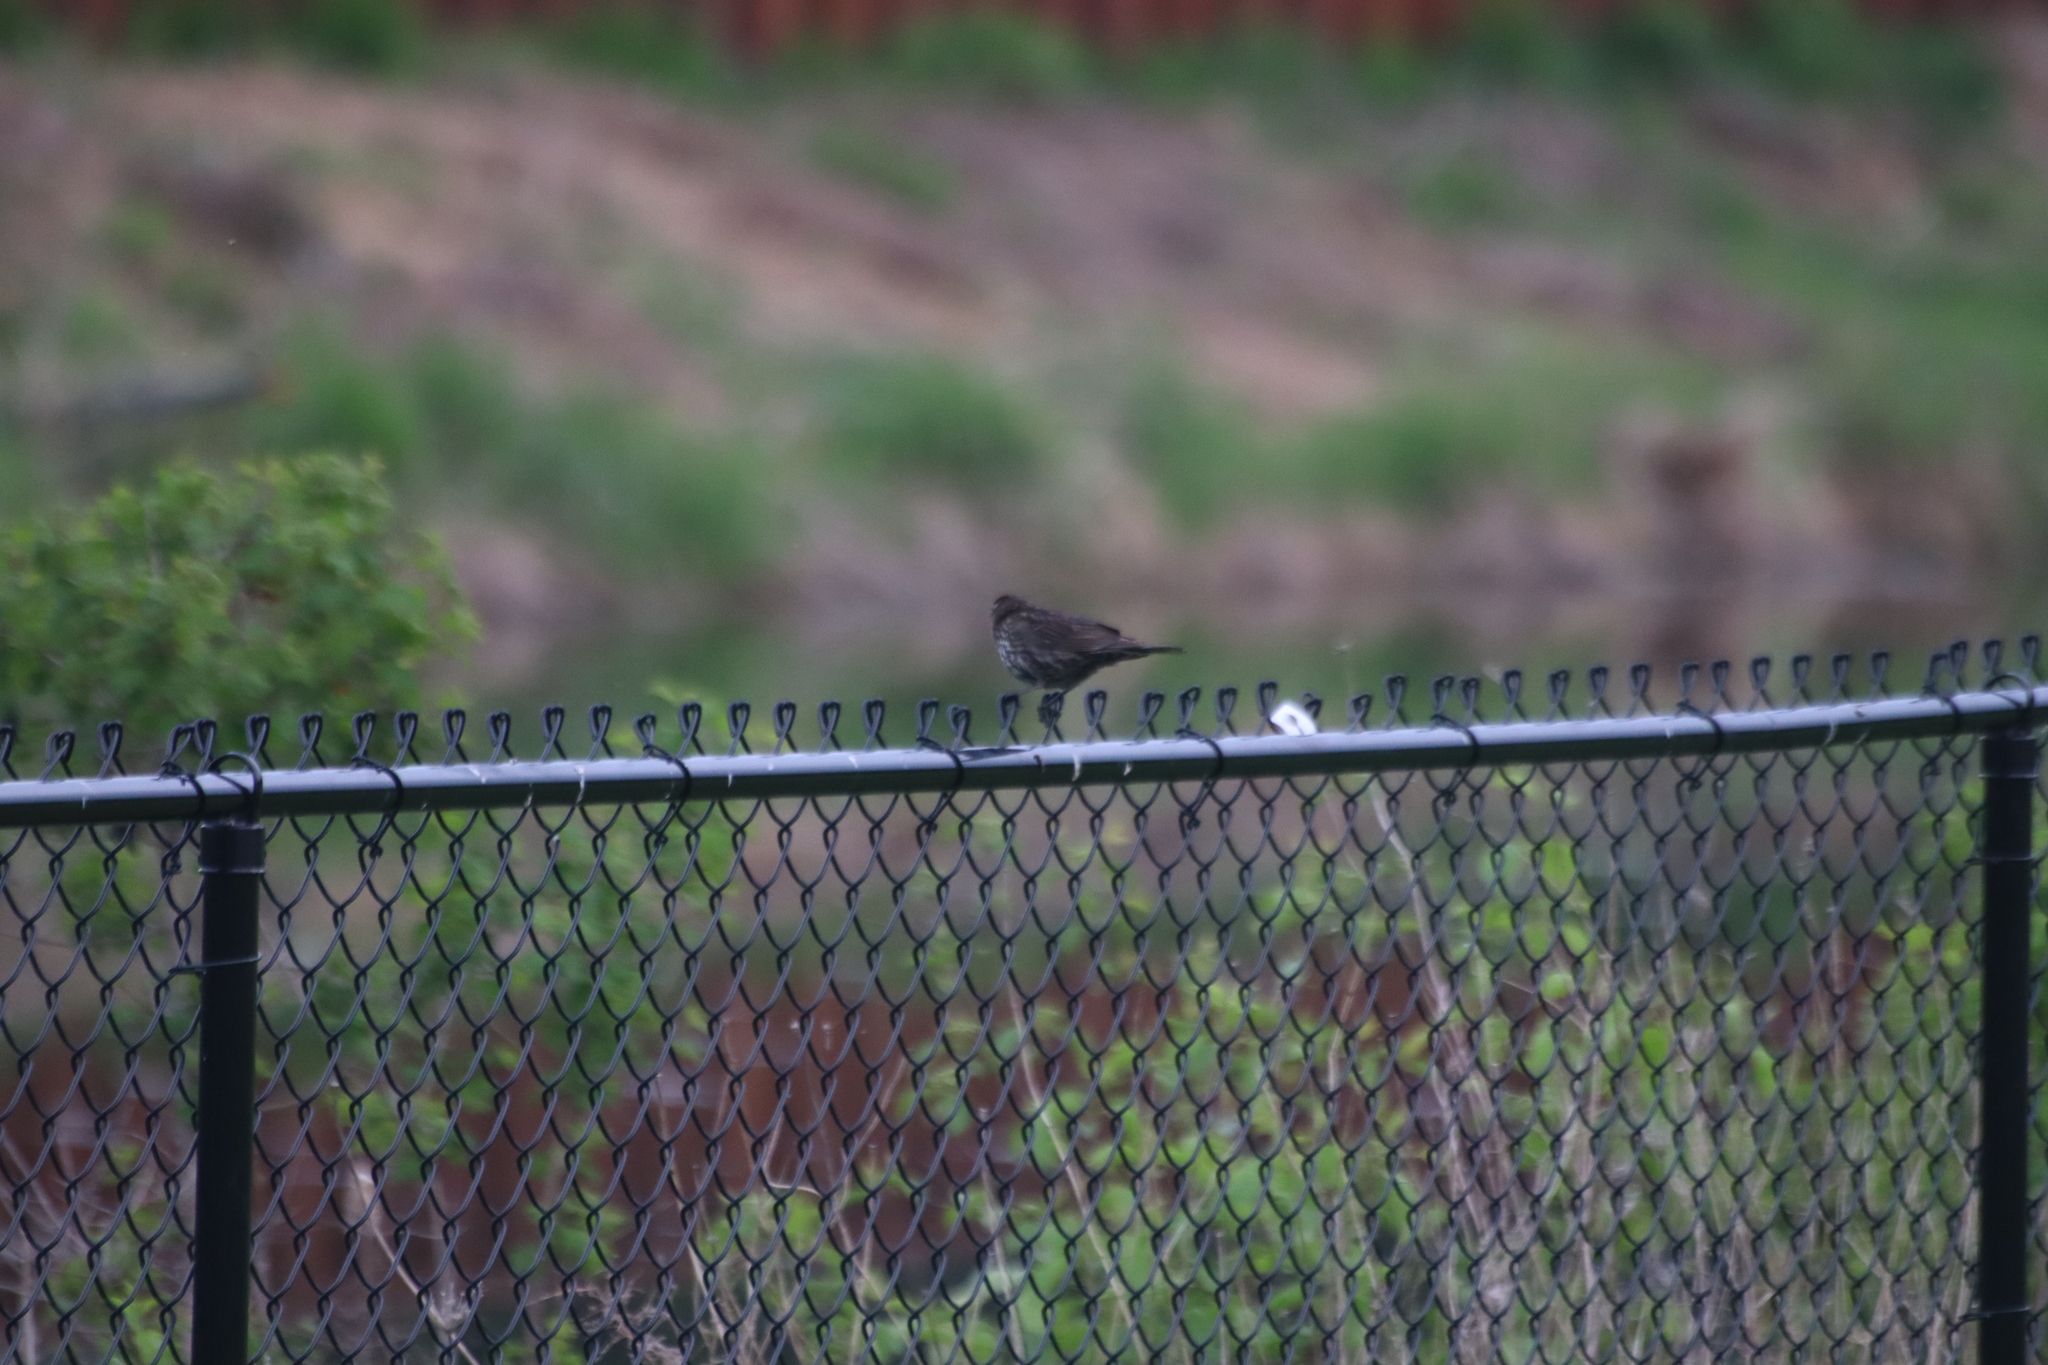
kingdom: Animalia
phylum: Chordata
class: Aves
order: Passeriformes
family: Icteridae
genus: Agelaius
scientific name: Agelaius phoeniceus
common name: Red-winged blackbird
